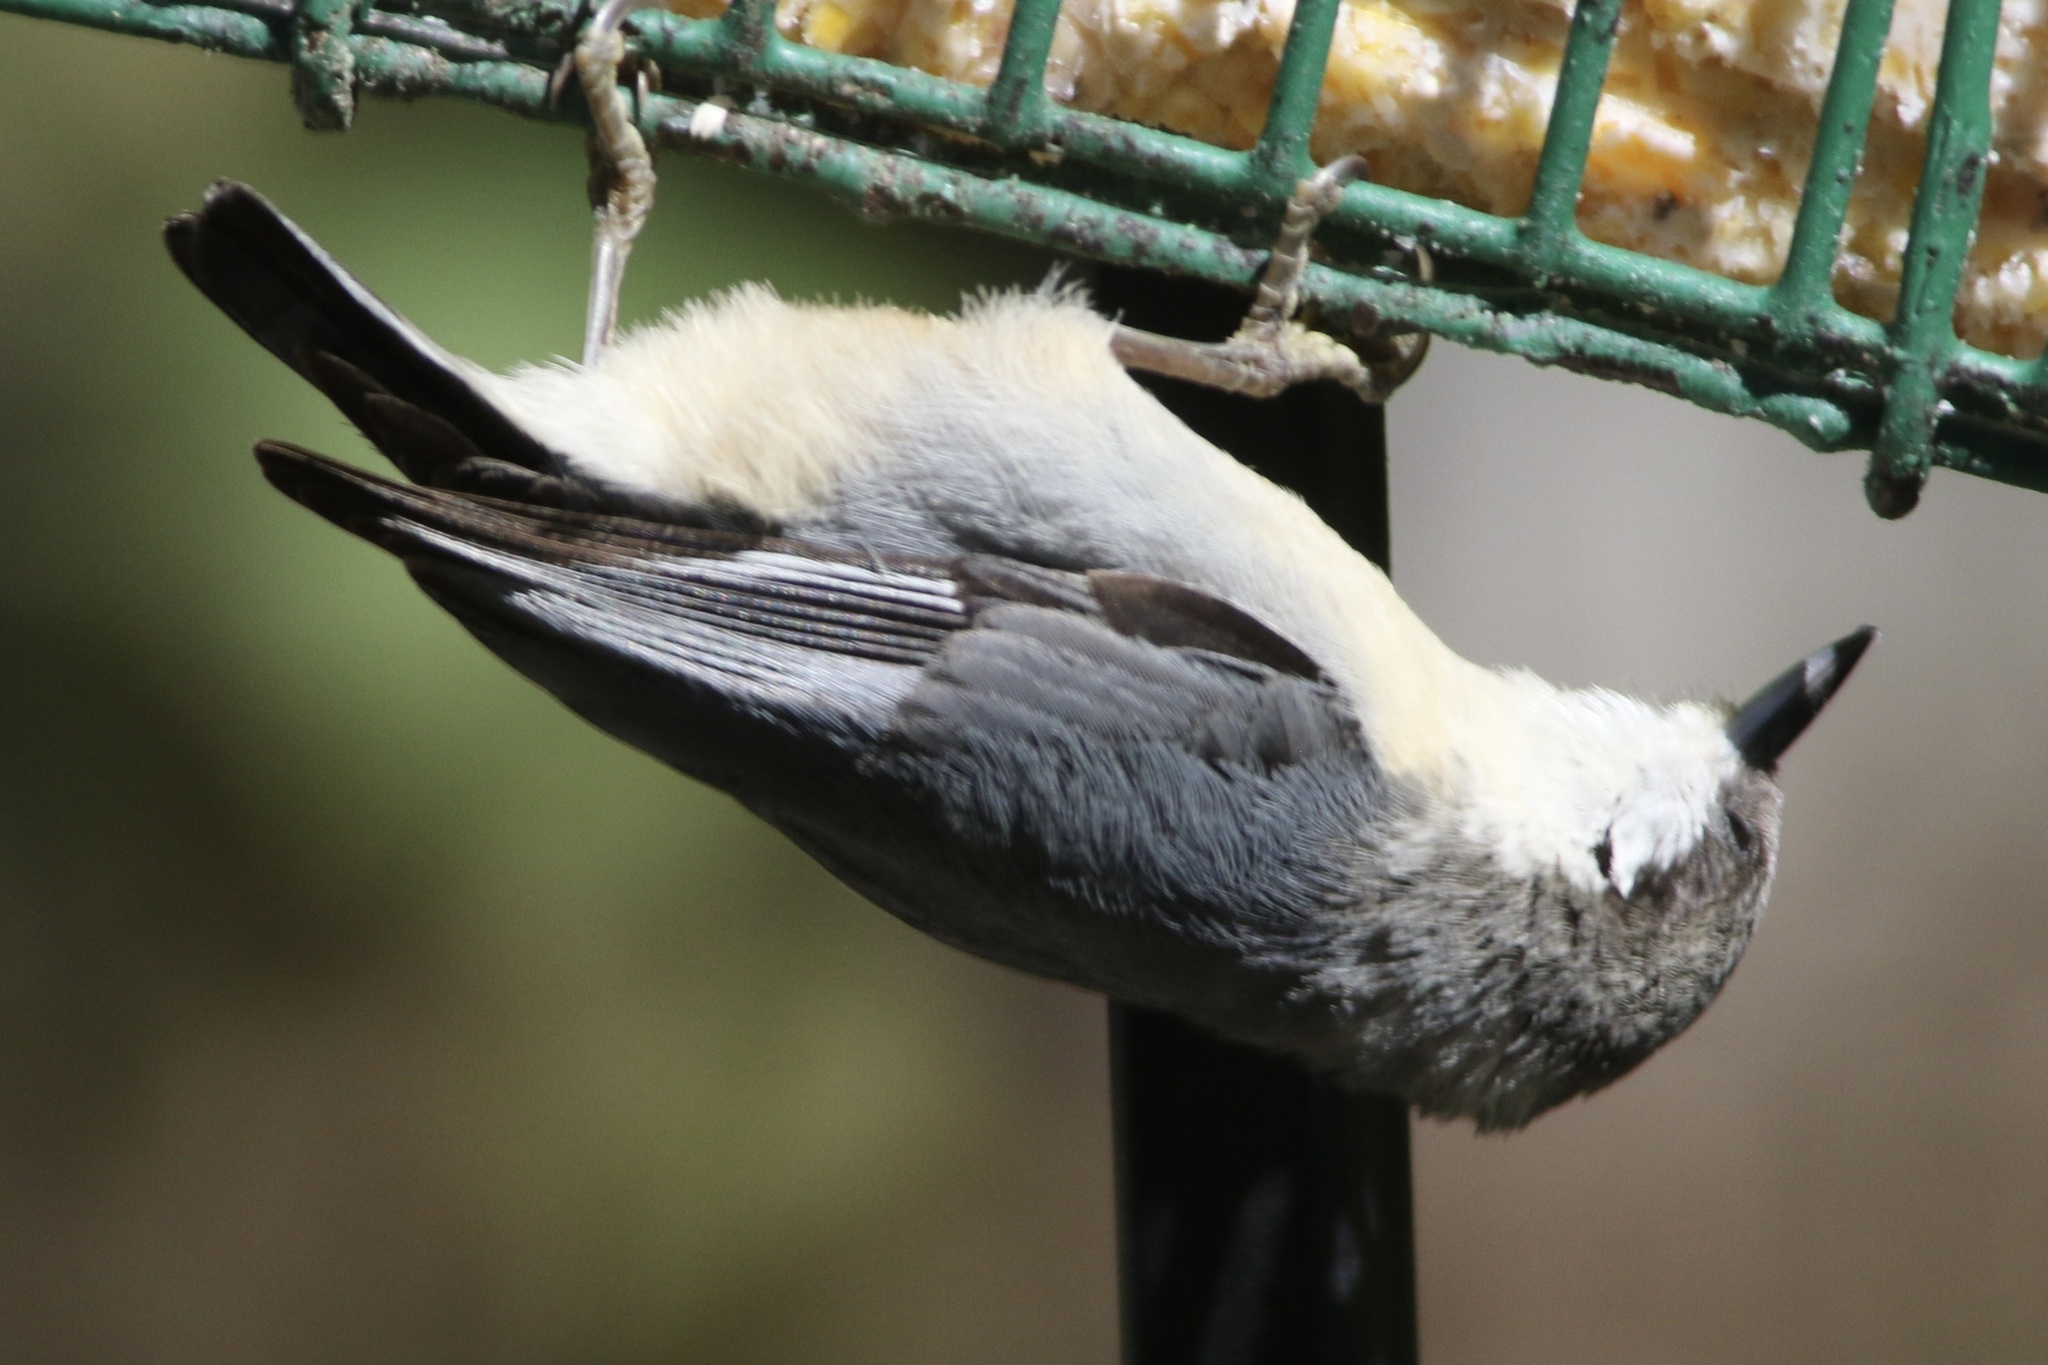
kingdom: Animalia
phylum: Chordata
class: Aves
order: Passeriformes
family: Sittidae
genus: Sitta
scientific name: Sitta pygmaea
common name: Pygmy nuthatch
